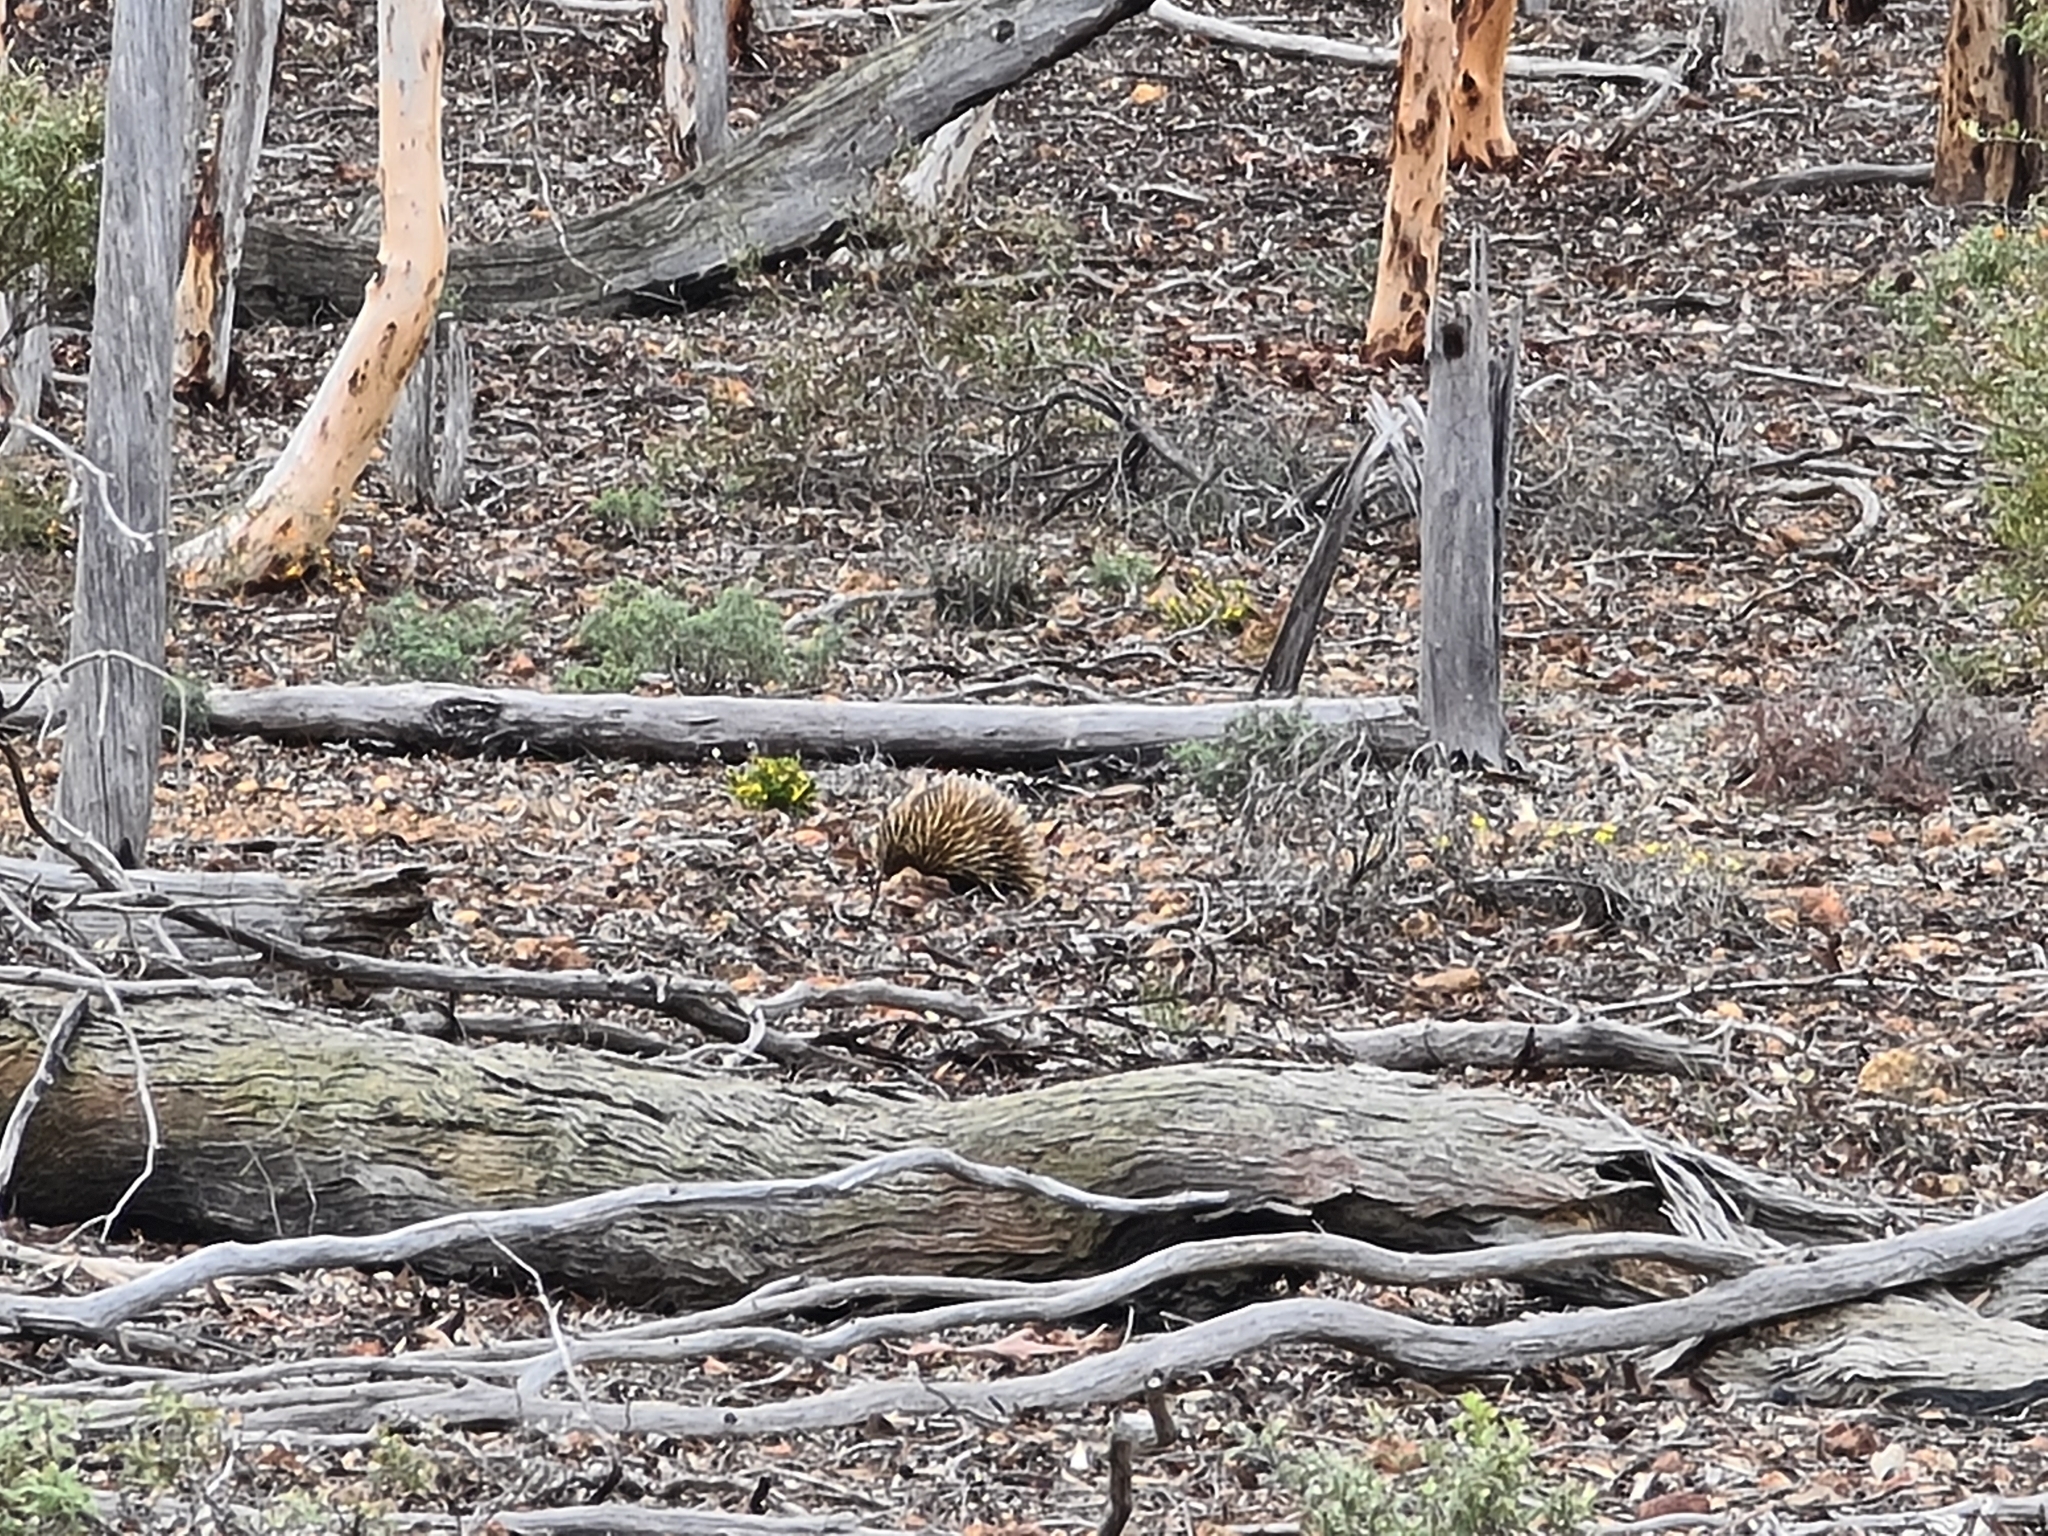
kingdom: Animalia
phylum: Chordata
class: Mammalia
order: Monotremata
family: Tachyglossidae
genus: Tachyglossus
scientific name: Tachyglossus aculeatus
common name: Short-beaked echidna
